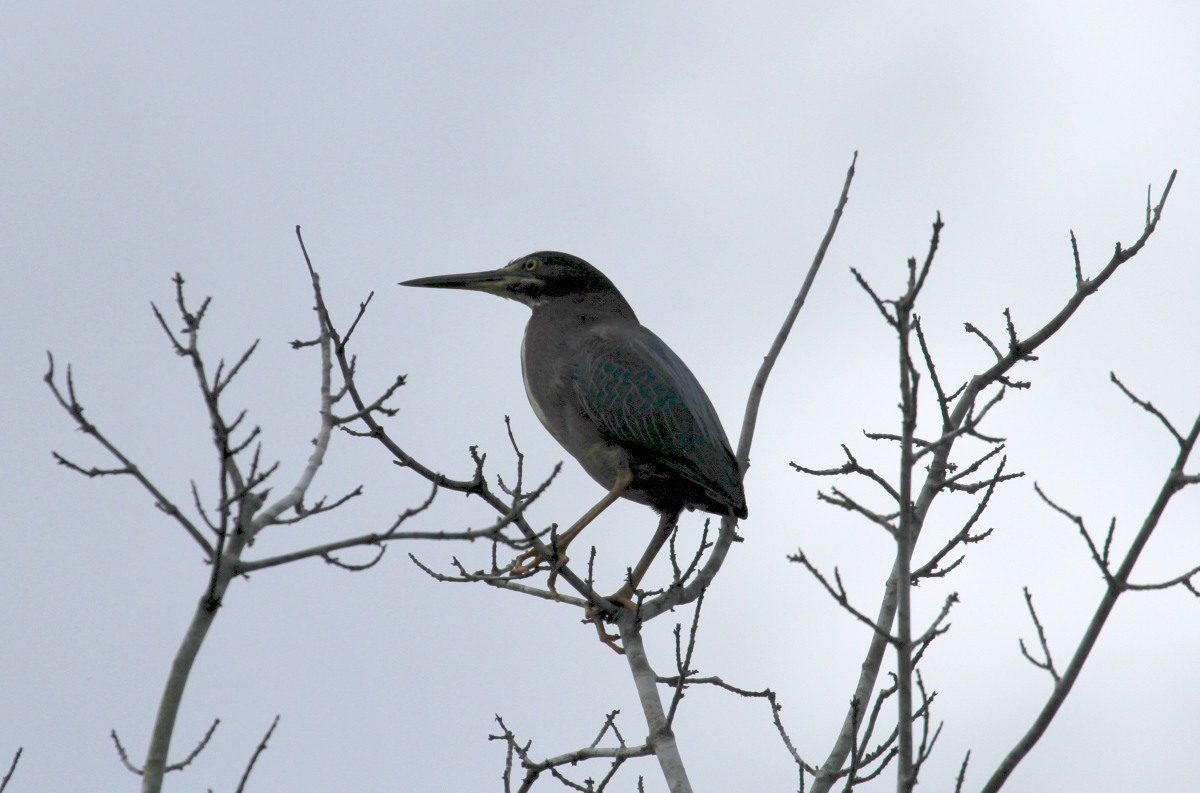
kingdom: Animalia
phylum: Chordata
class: Aves
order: Pelecaniformes
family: Ardeidae
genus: Butorides
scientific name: Butorides virescens
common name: Green heron
